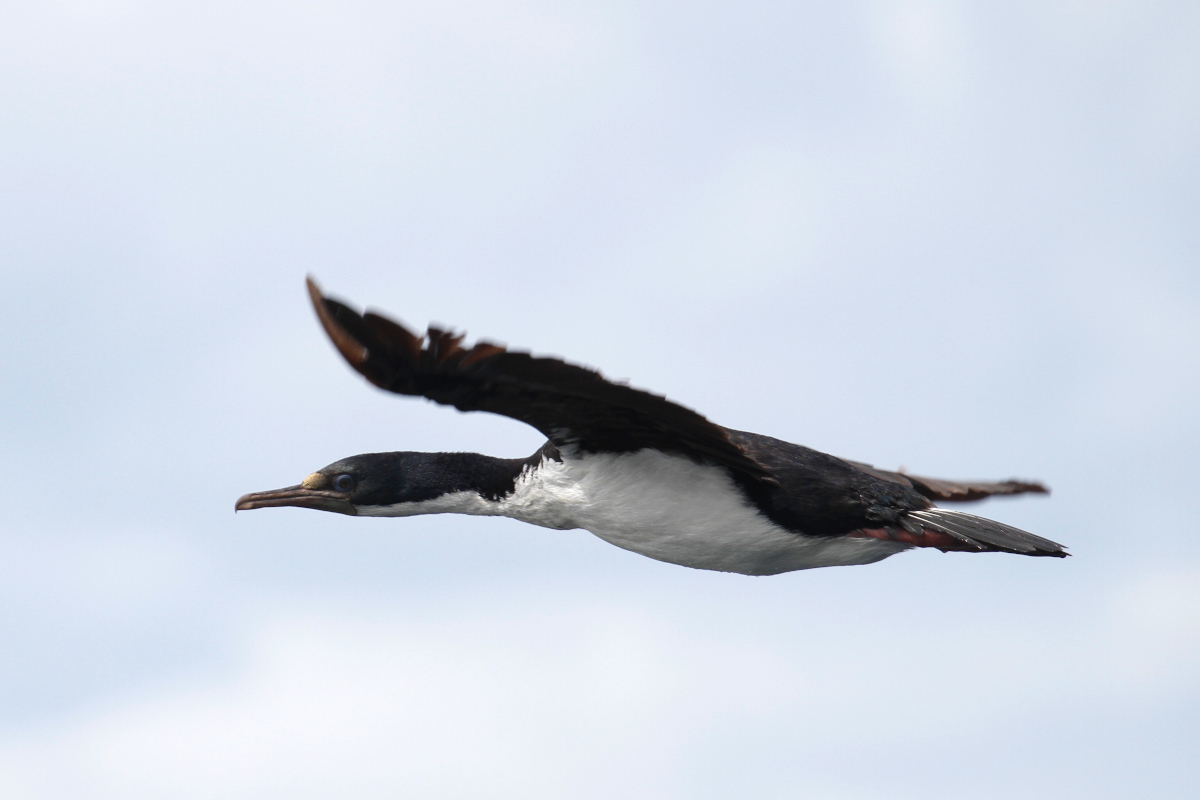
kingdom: Animalia
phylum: Chordata
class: Aves
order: Suliformes
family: Phalacrocoracidae
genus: Leucocarbo
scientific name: Leucocarbo atriceps
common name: Imperial shag
